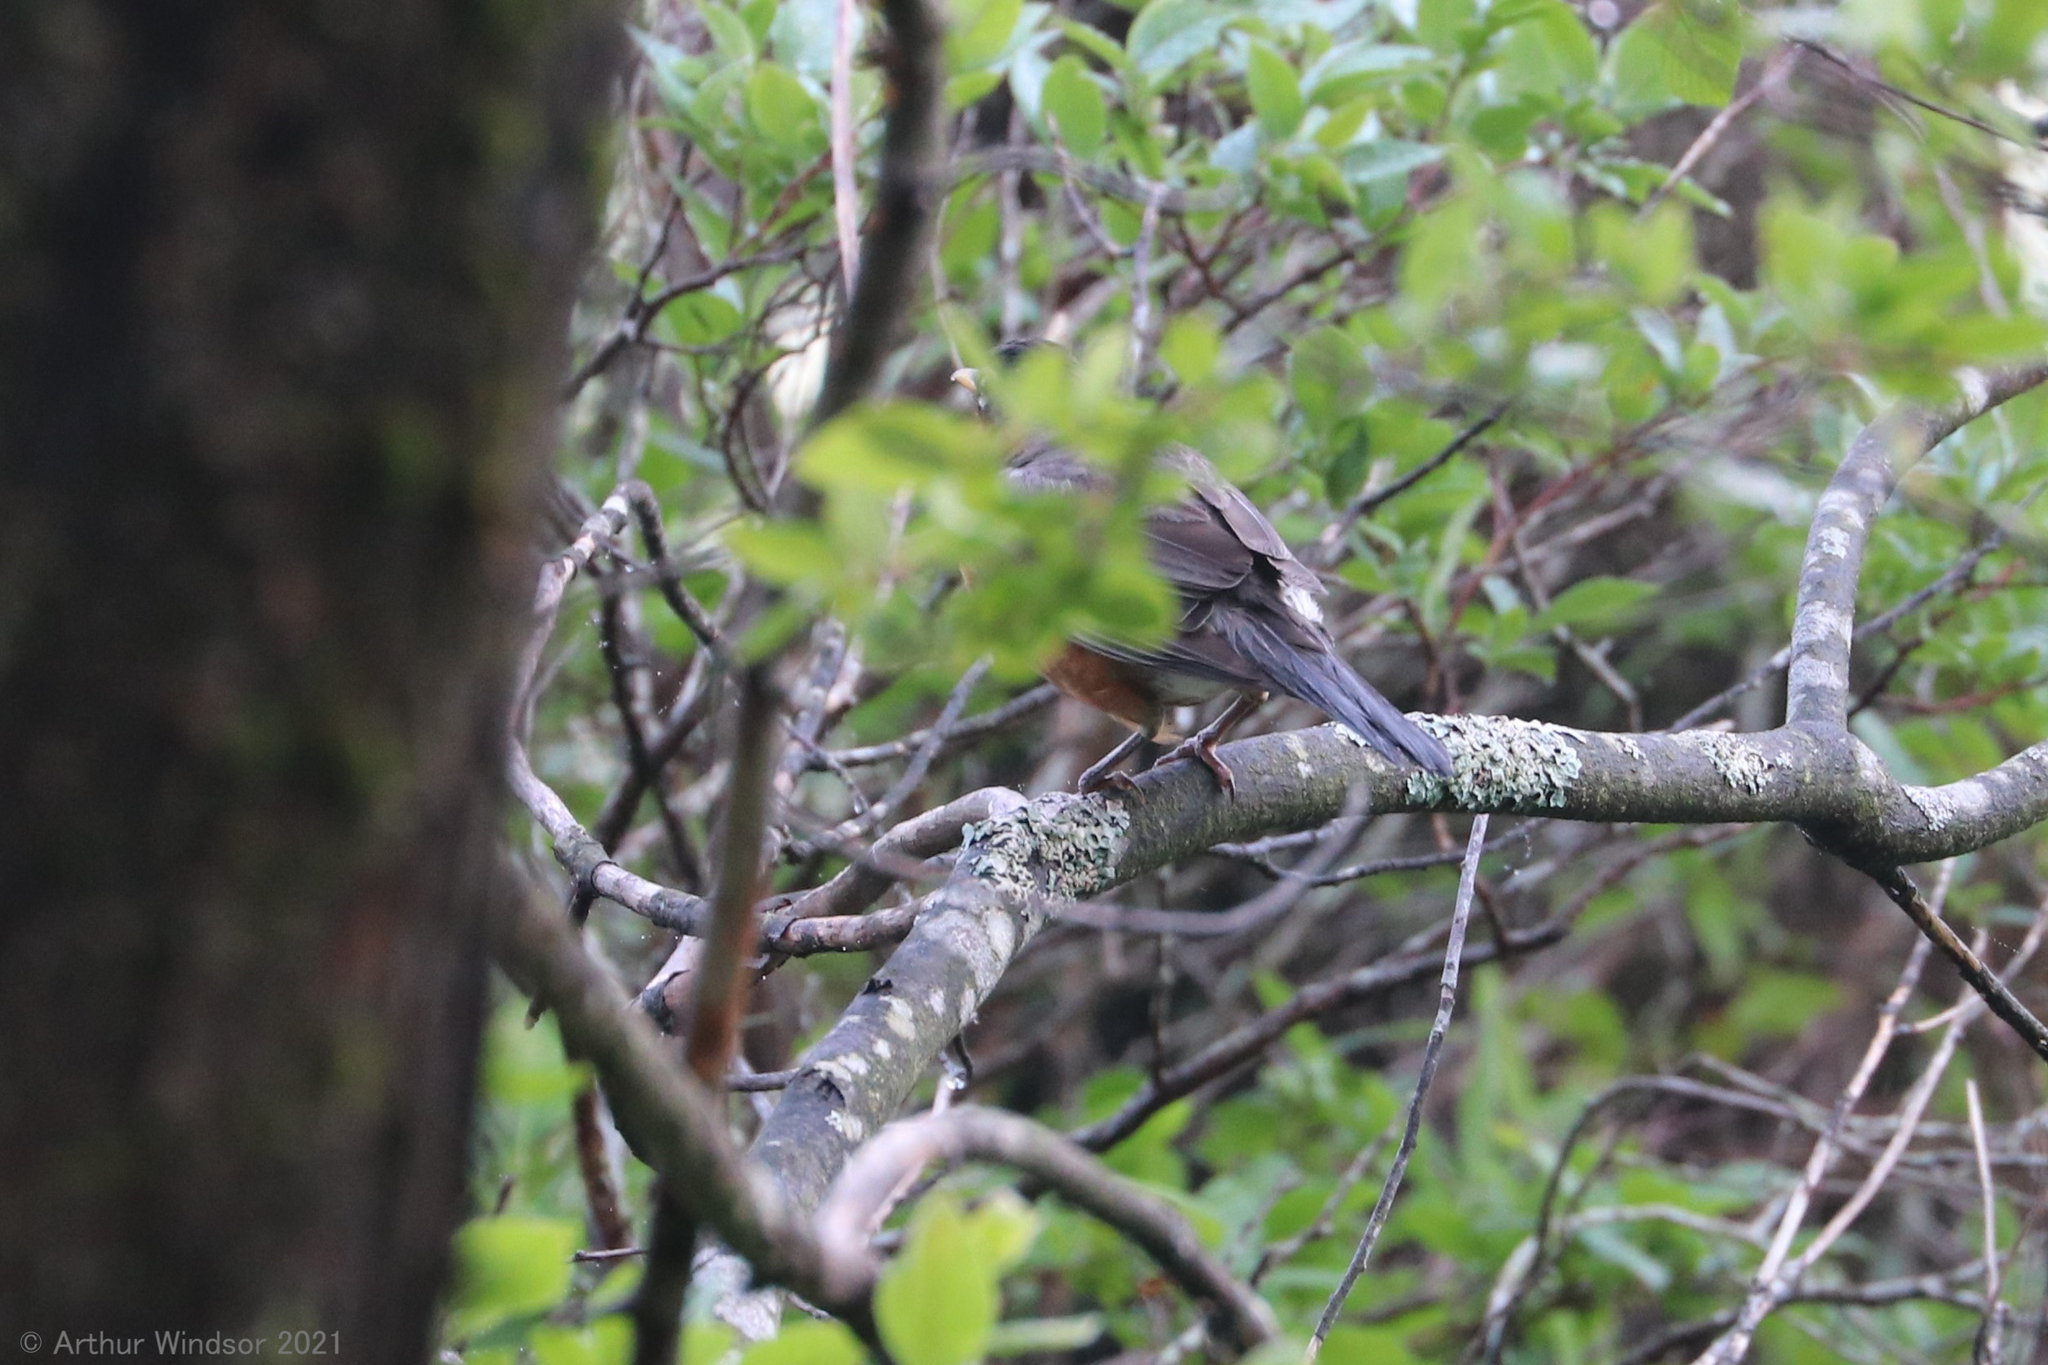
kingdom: Animalia
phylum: Chordata
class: Aves
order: Passeriformes
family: Turdidae
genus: Turdus
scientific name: Turdus migratorius
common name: American robin
